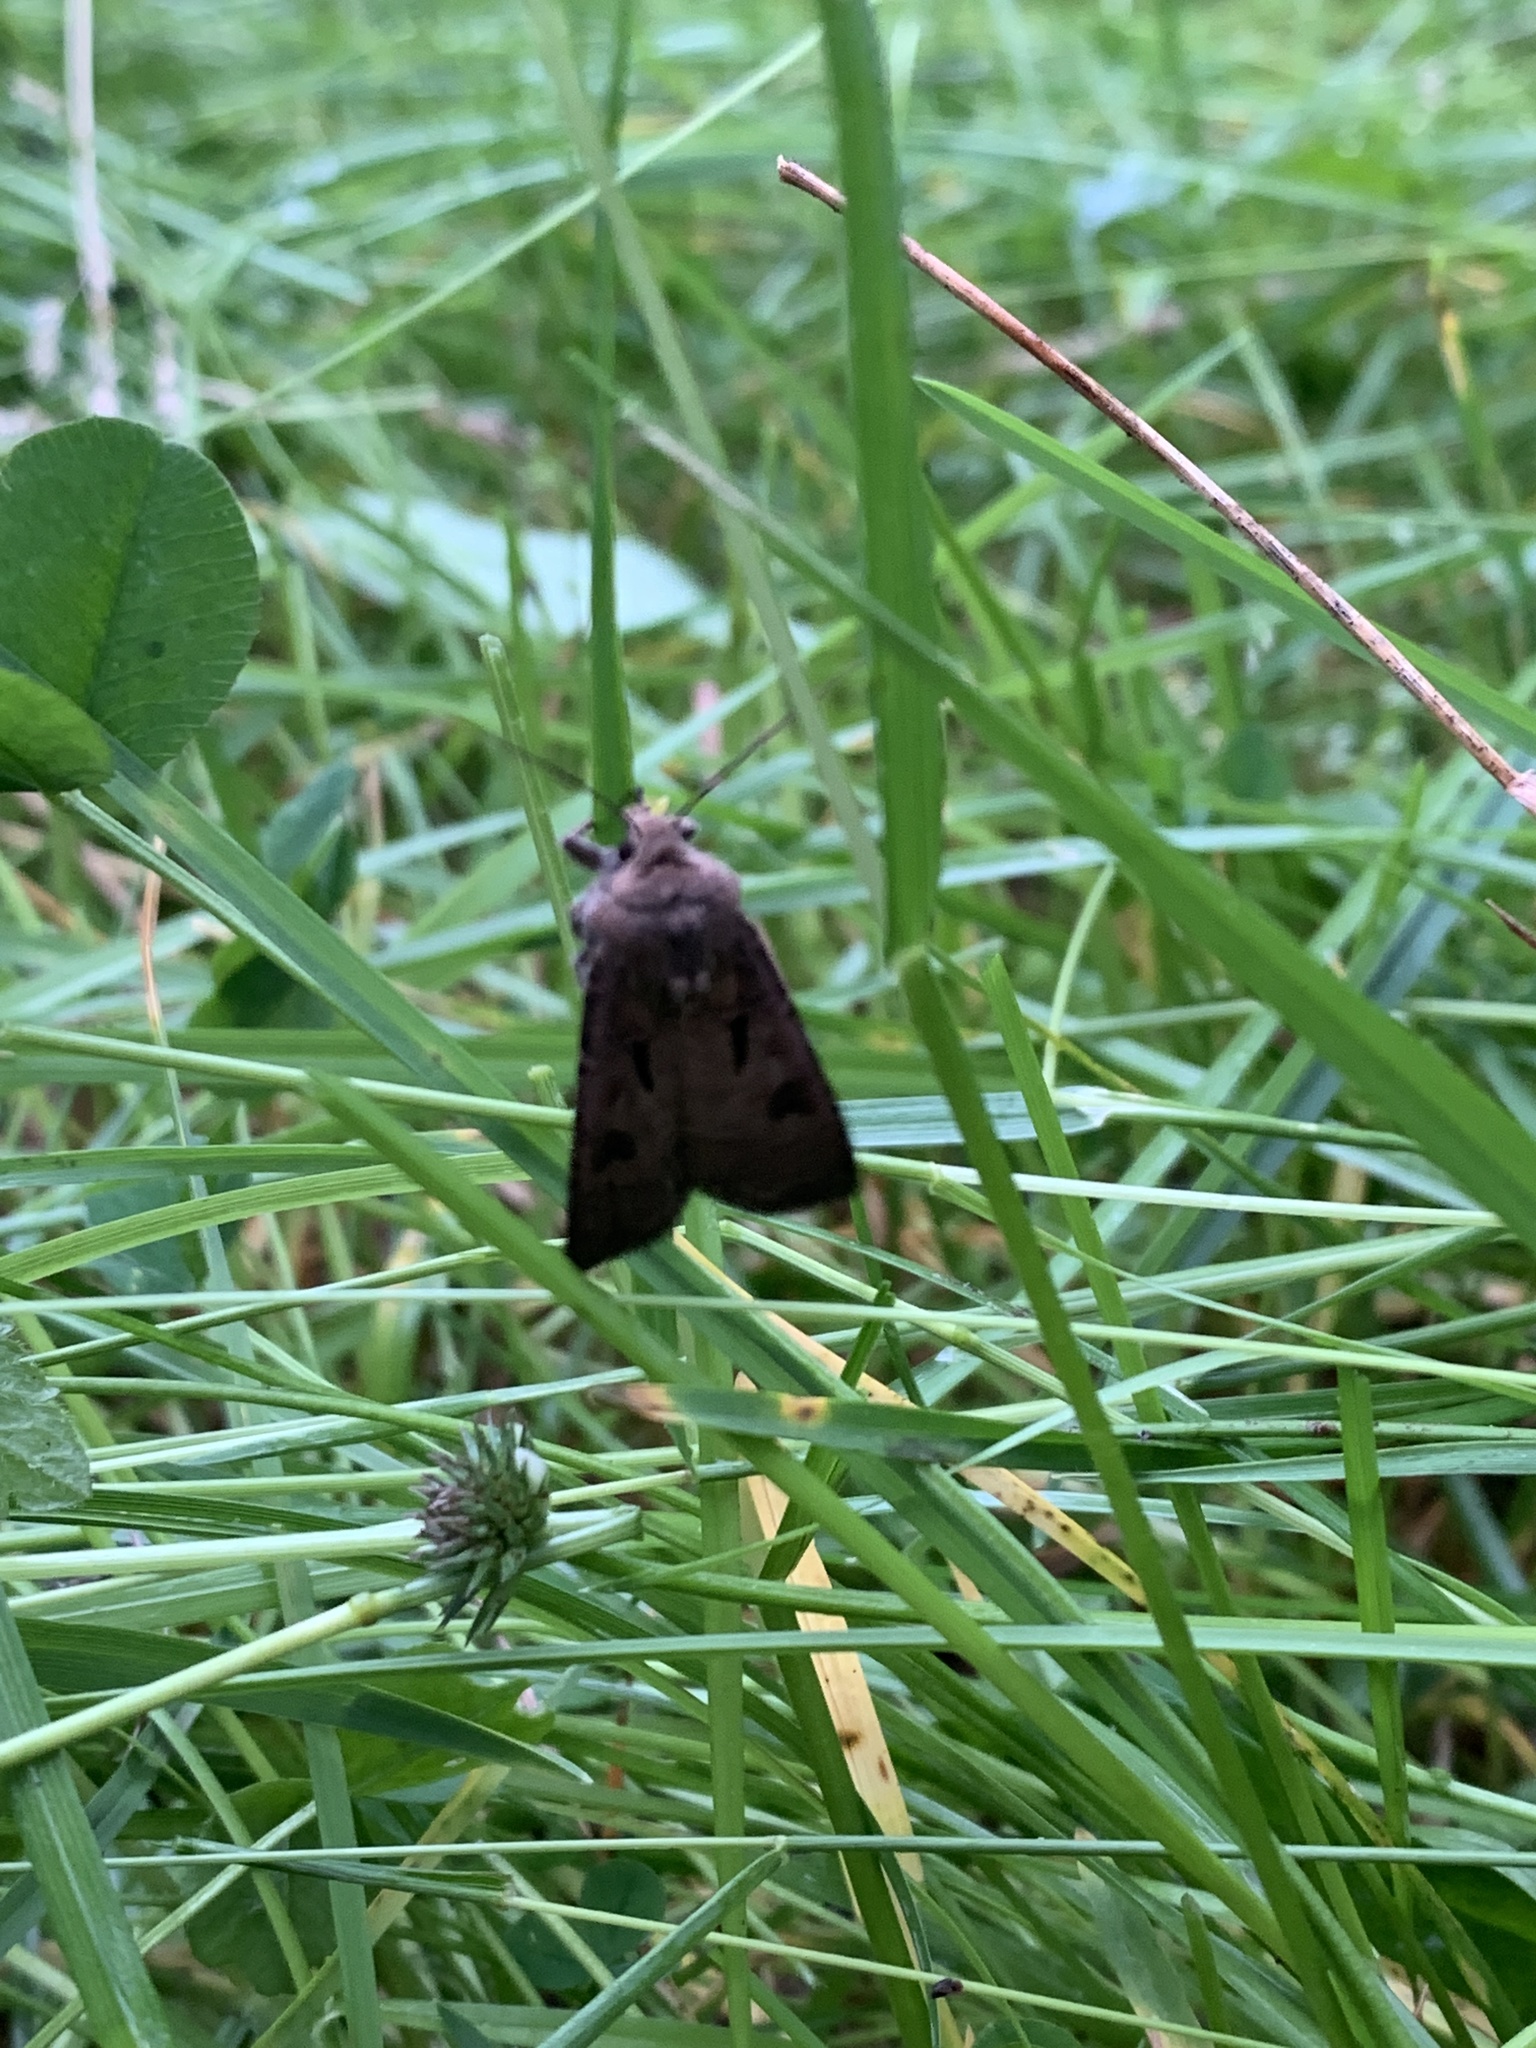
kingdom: Animalia
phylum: Arthropoda
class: Insecta
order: Lepidoptera
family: Noctuidae
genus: Agrotis
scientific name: Agrotis exclamationis
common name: Heart and dart
